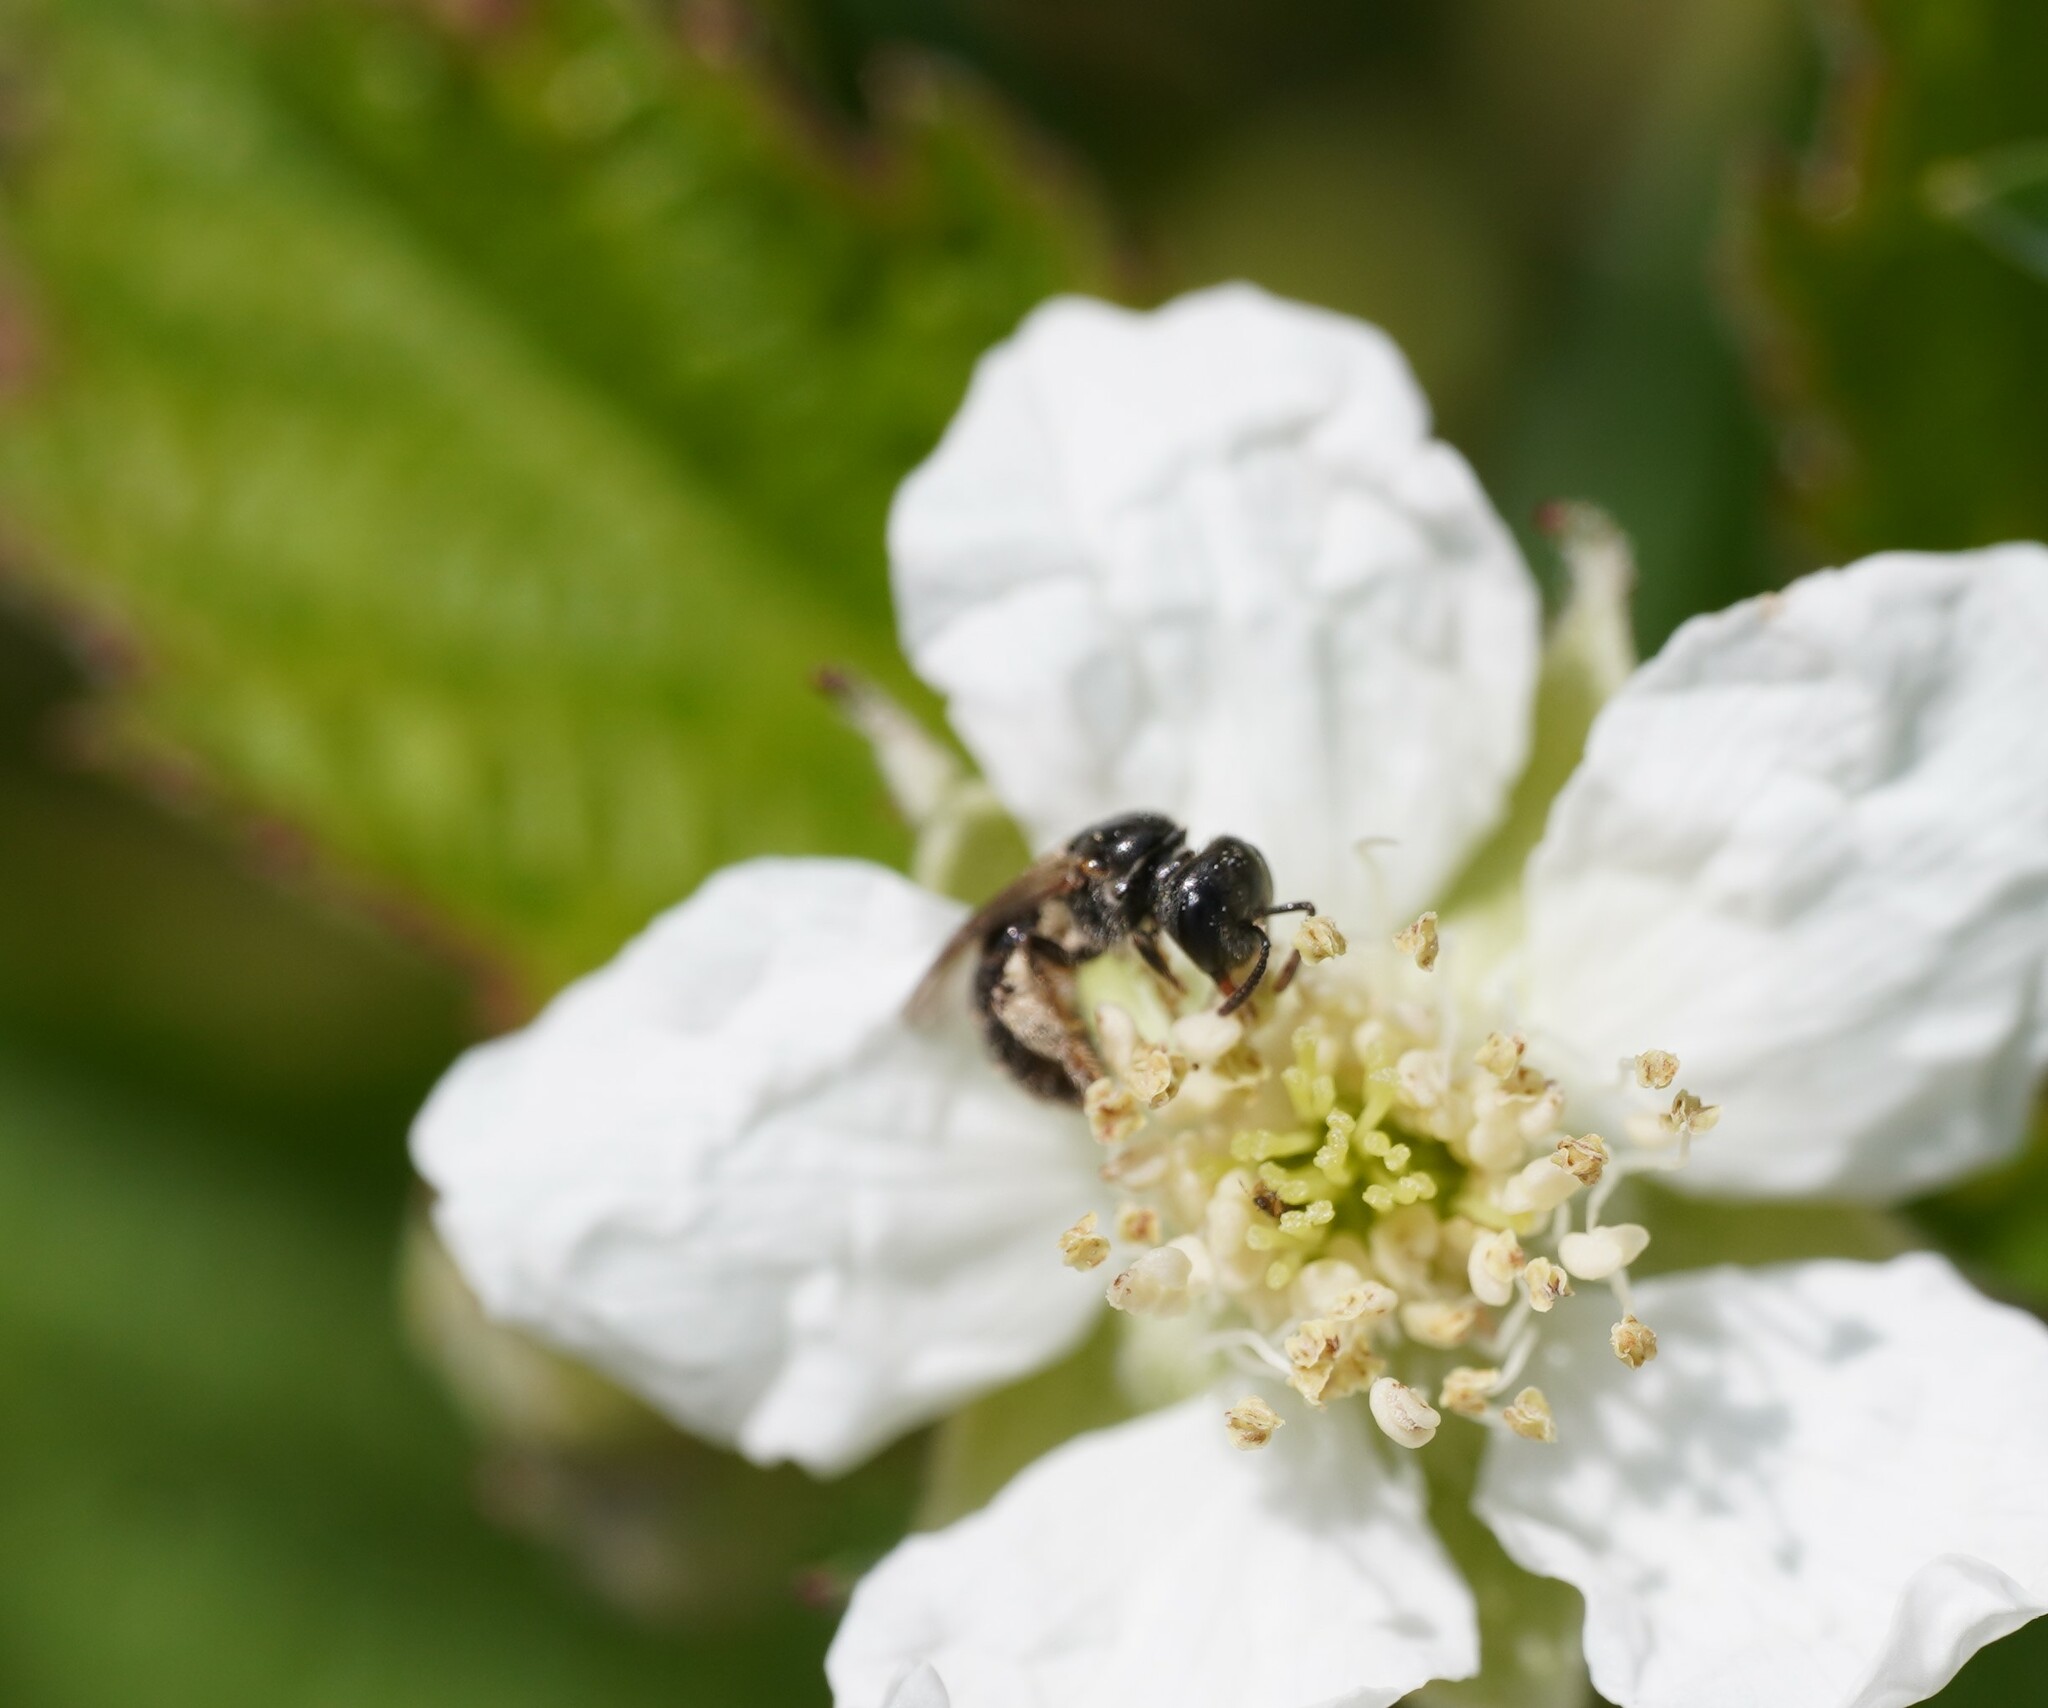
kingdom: Animalia
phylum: Arthropoda
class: Insecta
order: Hymenoptera
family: Halictidae
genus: Lasioglossum
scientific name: Lasioglossum politum
